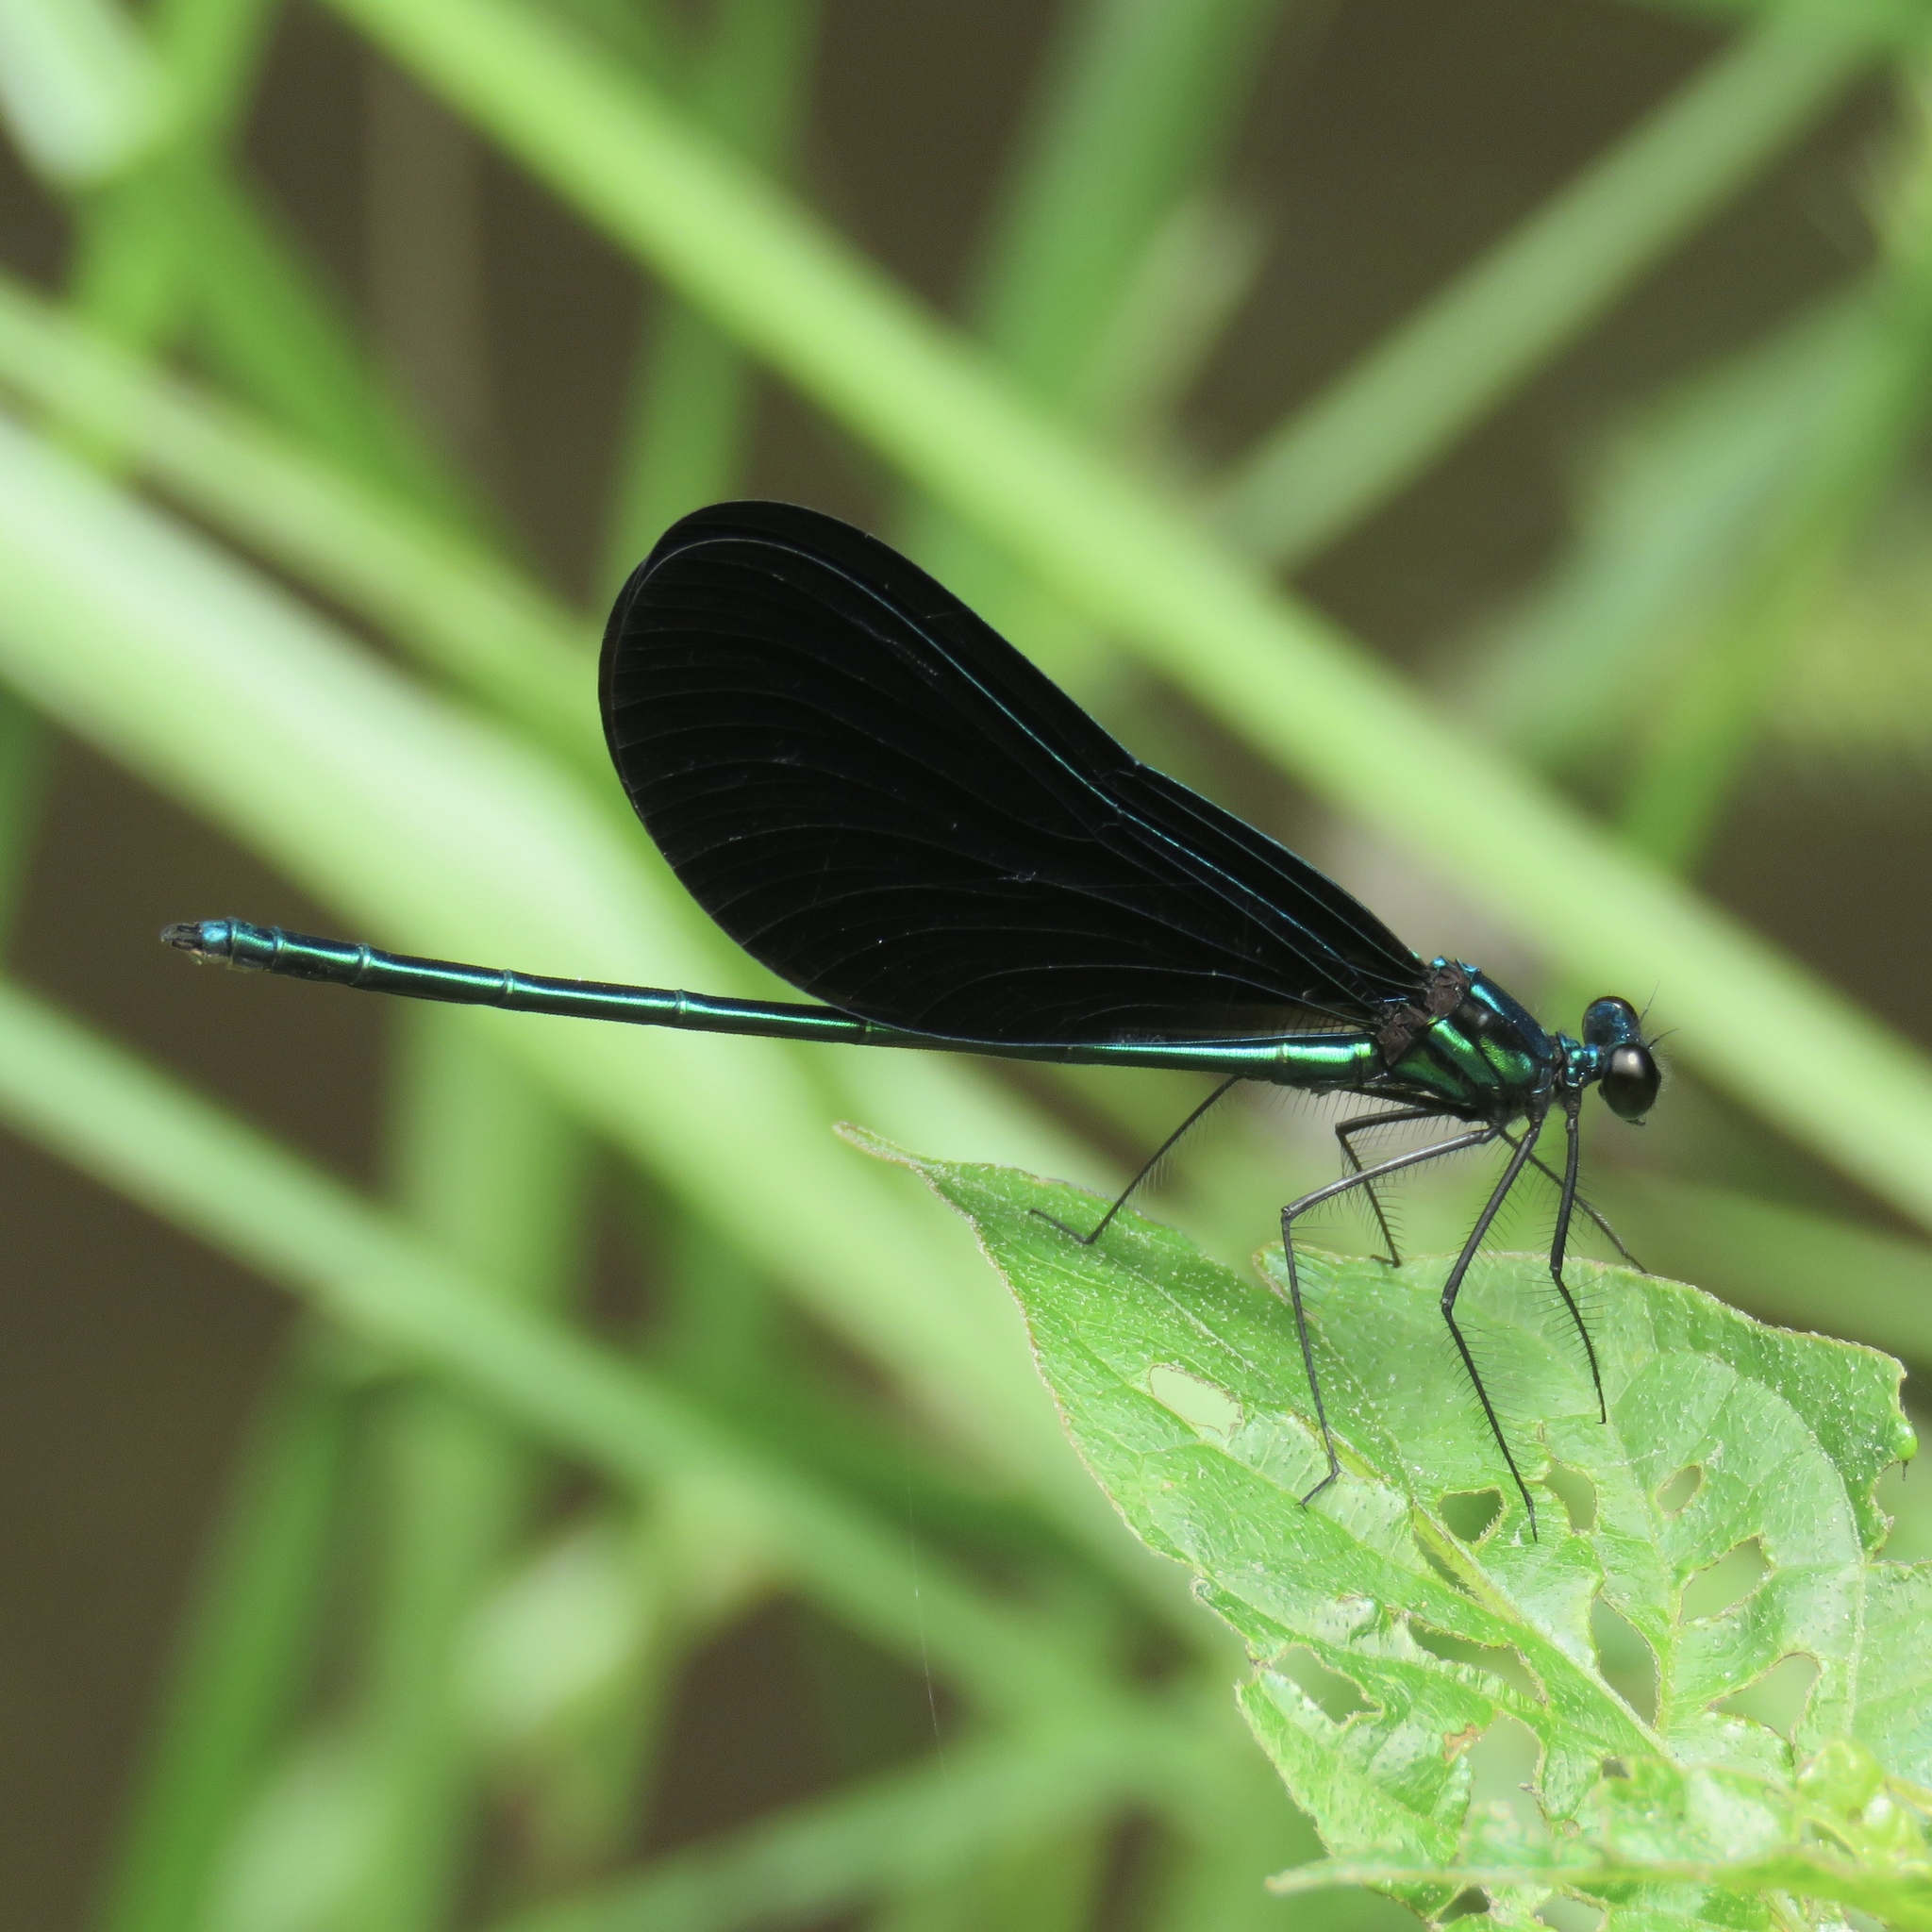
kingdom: Animalia
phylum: Arthropoda
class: Insecta
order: Odonata
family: Calopterygidae
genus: Calopteryx
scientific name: Calopteryx maculata
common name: Ebony jewelwing
